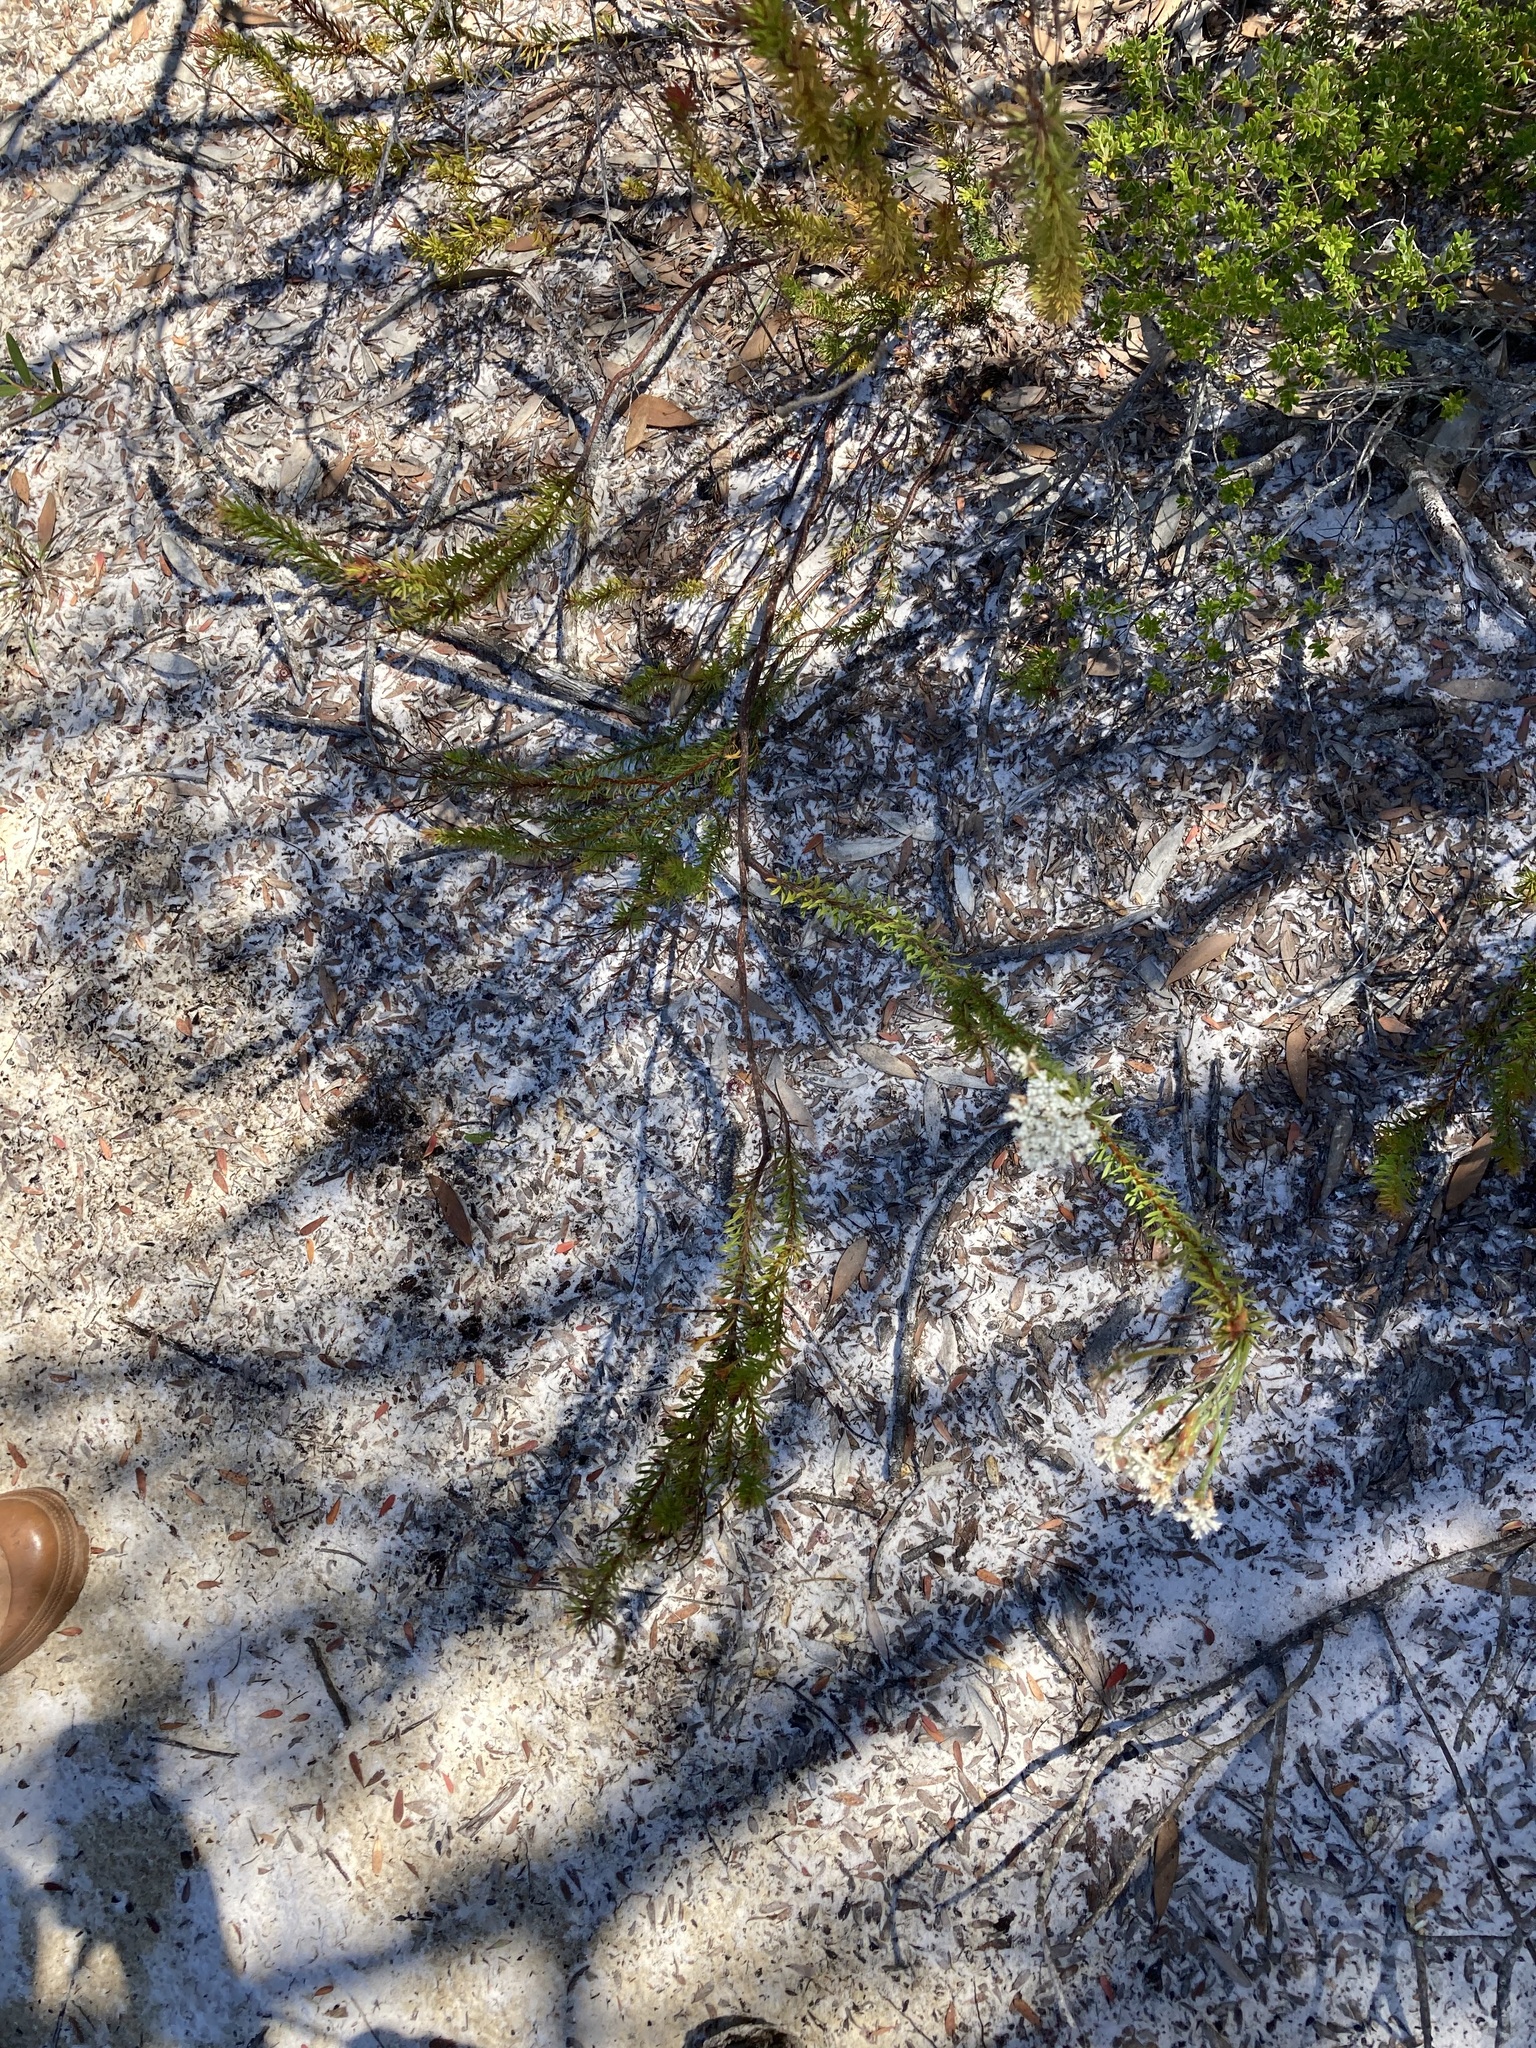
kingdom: Plantae
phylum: Tracheophyta
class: Magnoliopsida
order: Proteales
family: Proteaceae
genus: Conospermum
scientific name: Conospermum taxifolium
